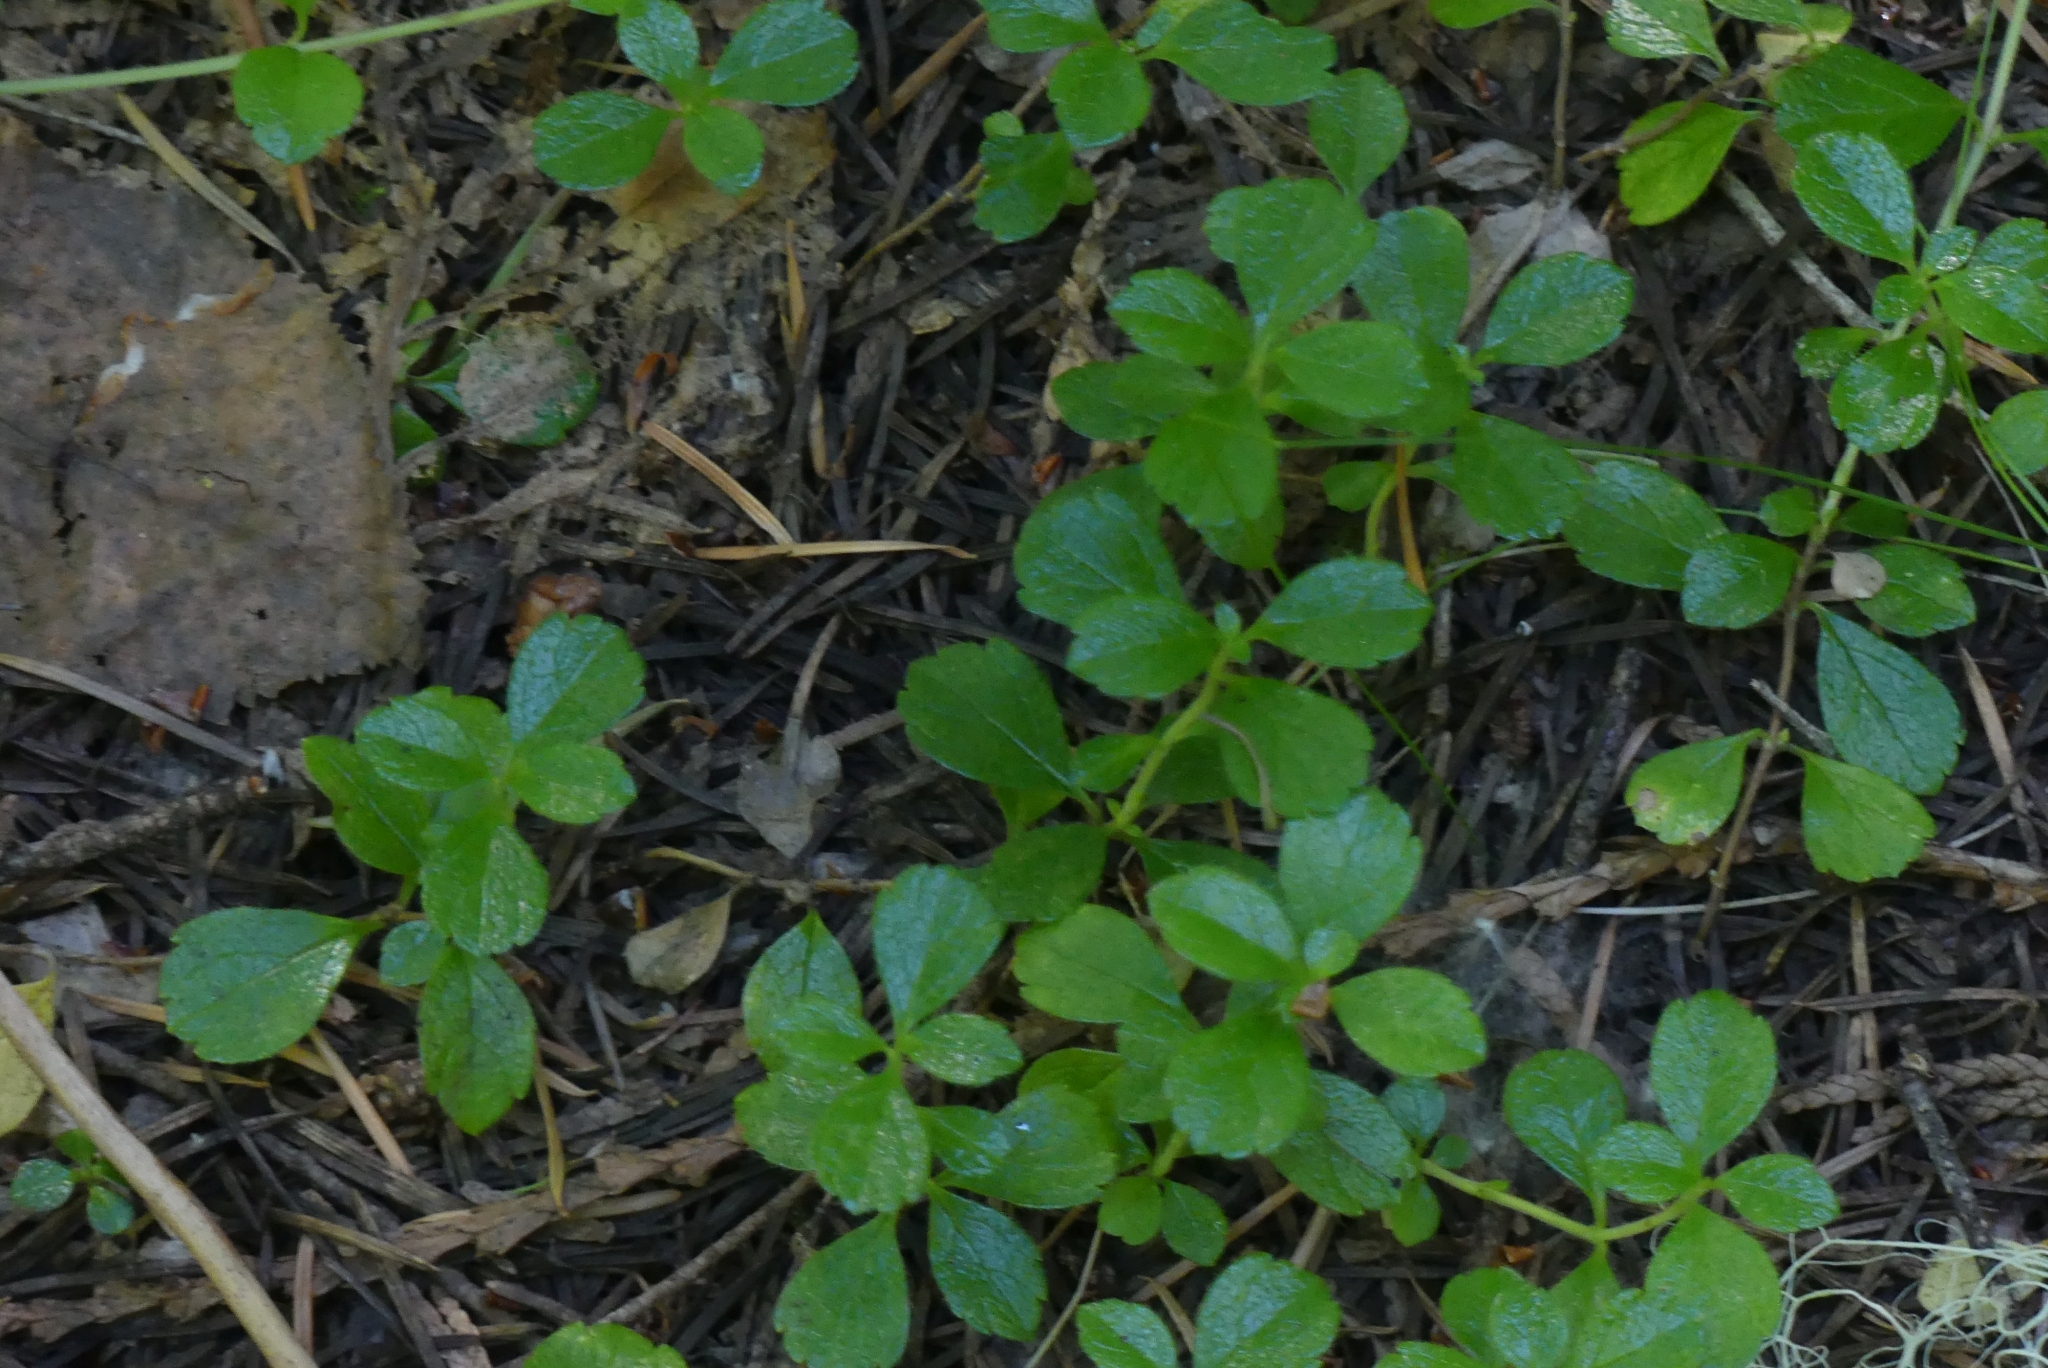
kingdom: Plantae
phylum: Tracheophyta
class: Magnoliopsida
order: Dipsacales
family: Caprifoliaceae
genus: Linnaea
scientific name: Linnaea borealis
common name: Twinflower
